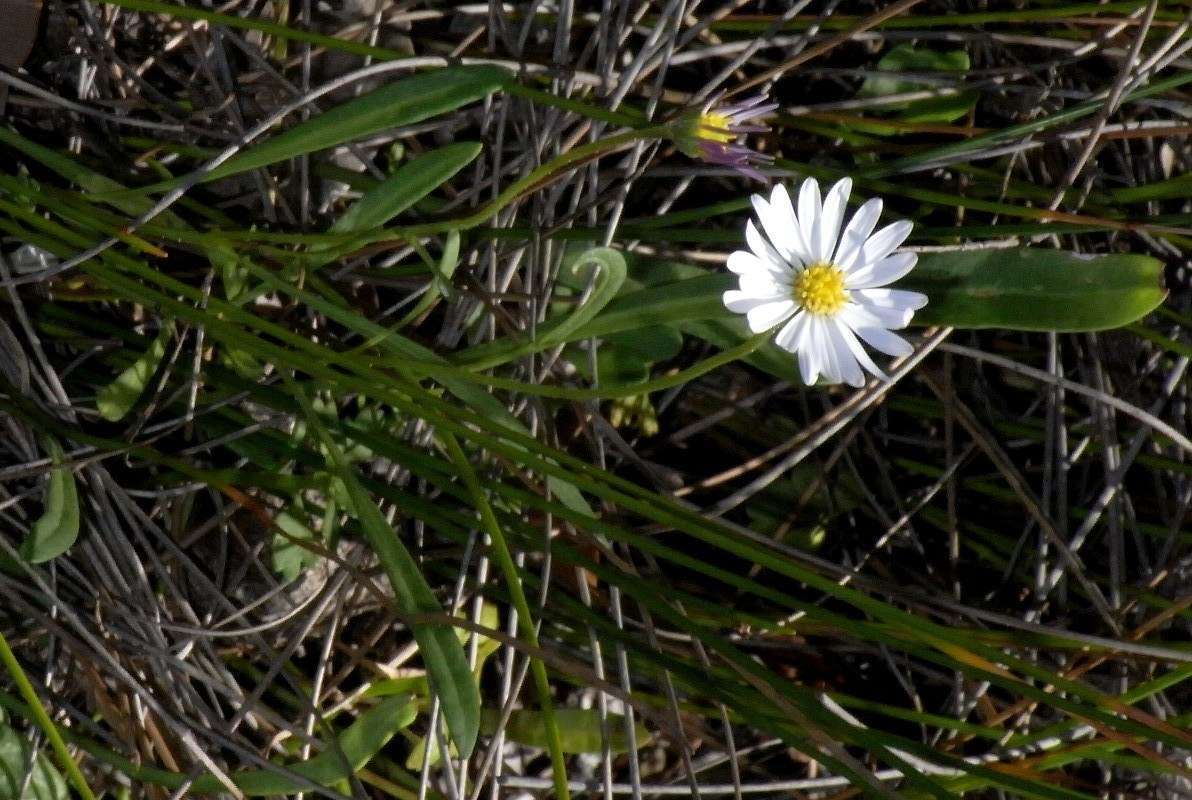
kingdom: Plantae
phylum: Tracheophyta
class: Magnoliopsida
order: Asterales
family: Asteraceae
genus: Brachyscome
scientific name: Brachyscome graminea
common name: Grass daisy
